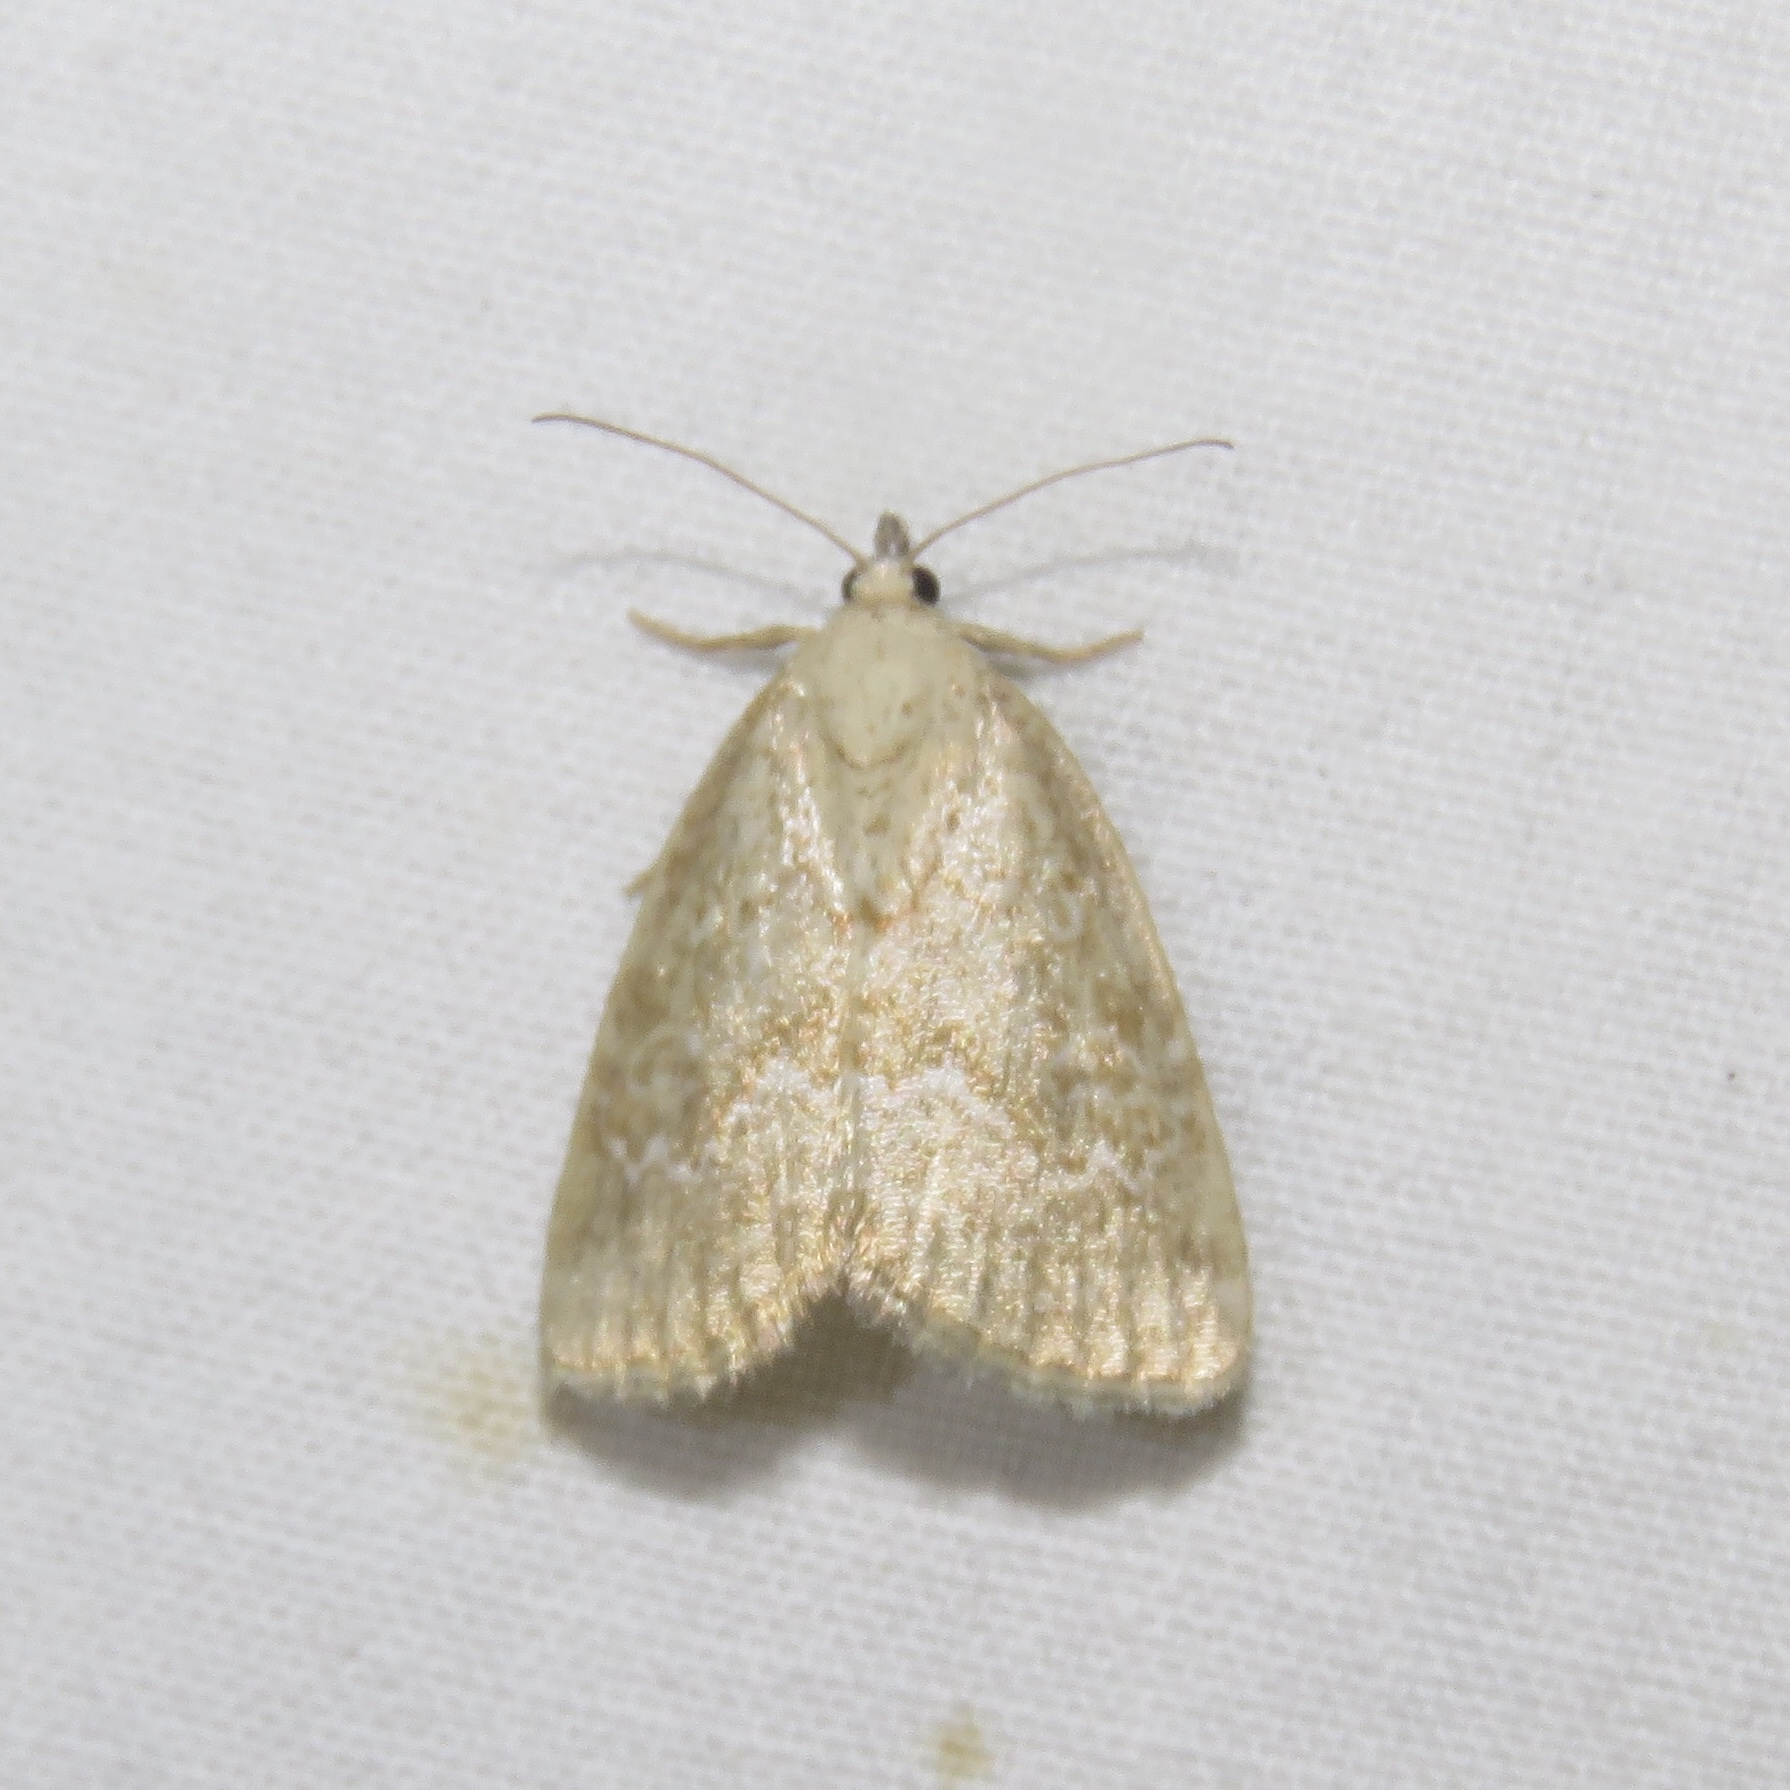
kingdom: Animalia
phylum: Arthropoda
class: Insecta
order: Lepidoptera
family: Noctuidae
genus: Protodeltote
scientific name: Protodeltote albidula
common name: Pale glyph
